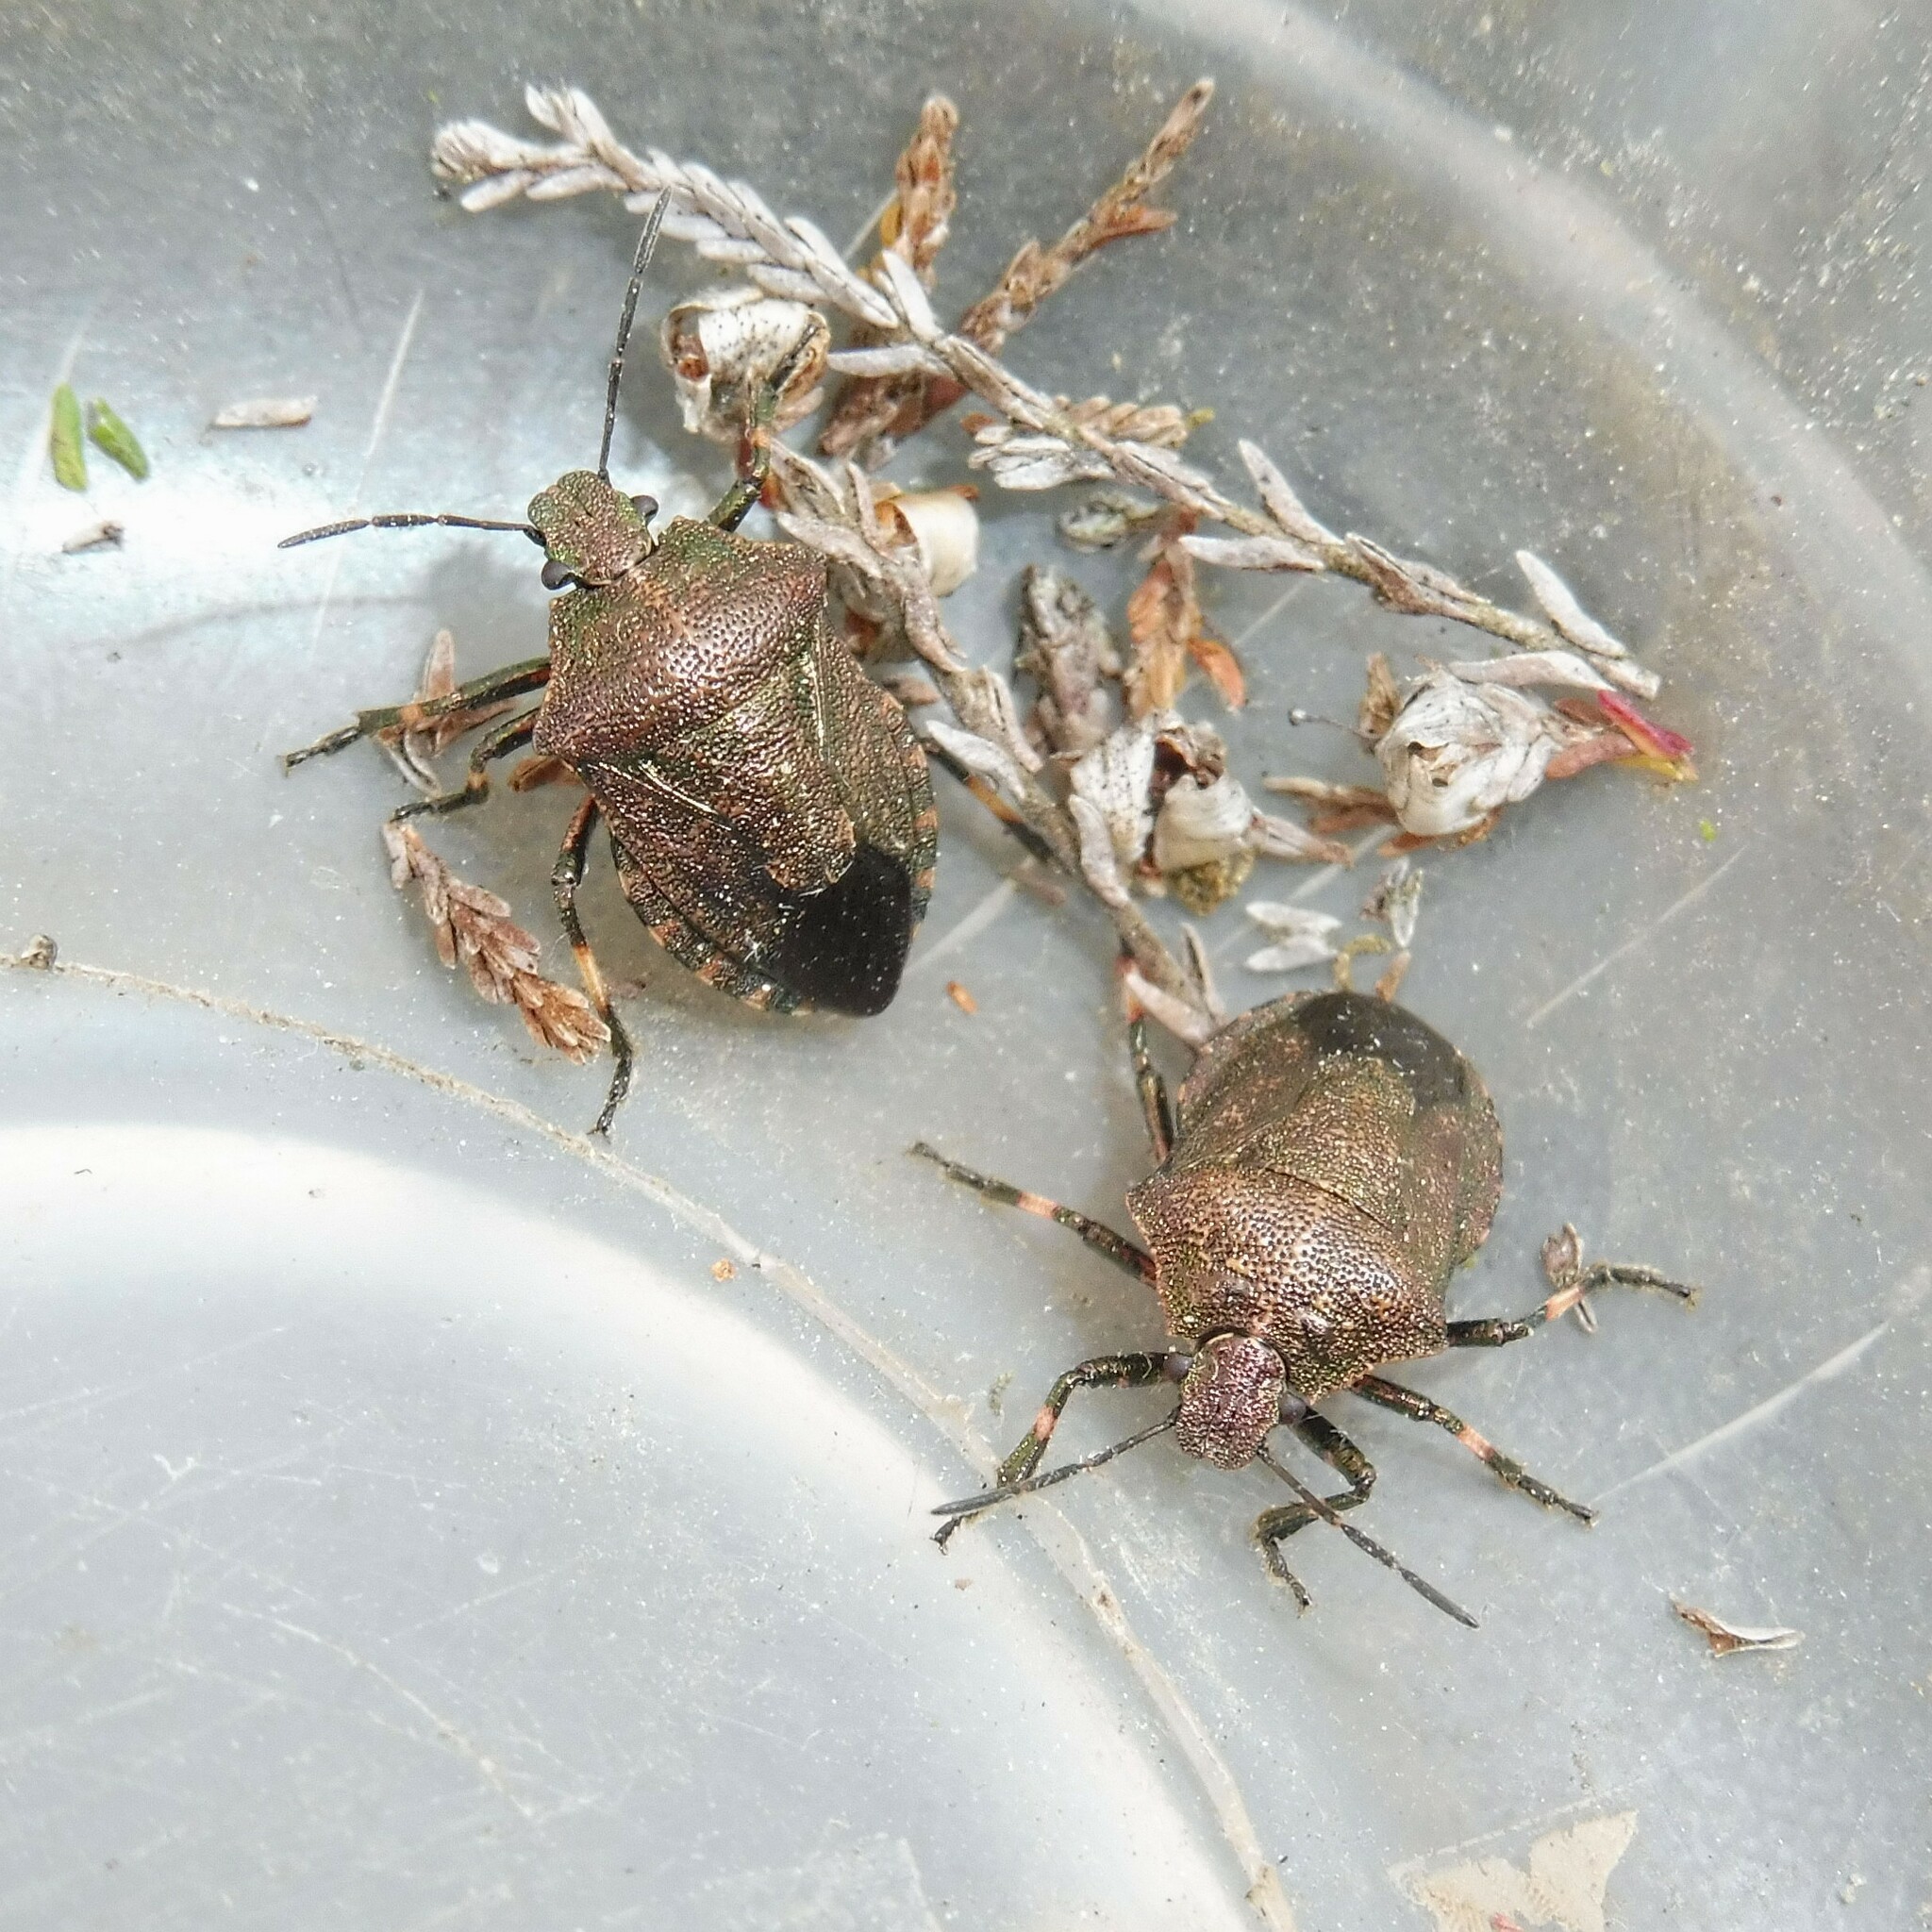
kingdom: Animalia
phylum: Arthropoda
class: Insecta
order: Hemiptera
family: Pentatomidae
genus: Rhacognathus
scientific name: Rhacognathus punctatus
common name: Heather bug
